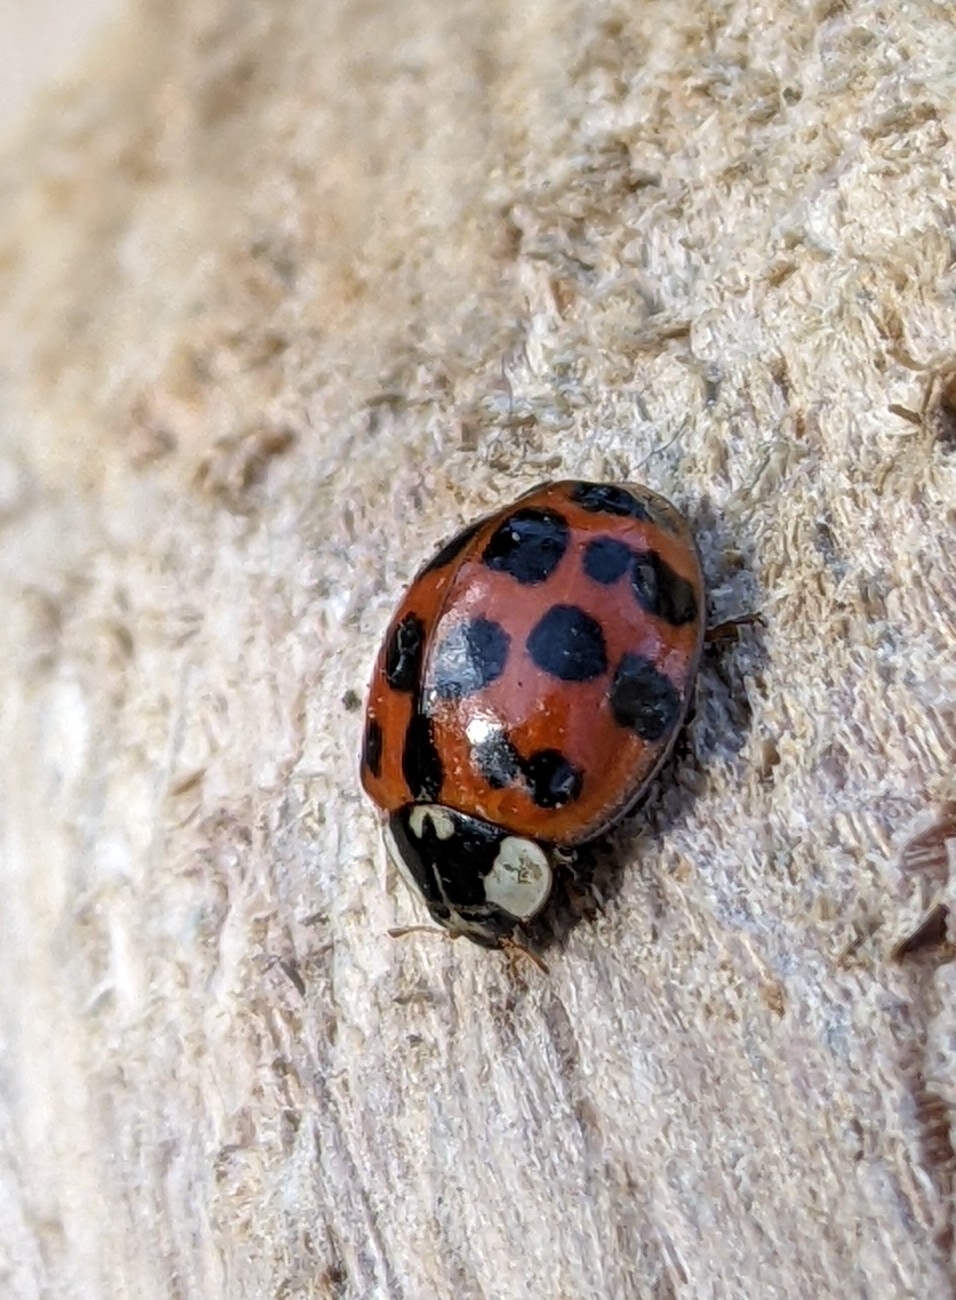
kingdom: Animalia
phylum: Arthropoda
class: Insecta
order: Coleoptera
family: Coccinellidae
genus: Harmonia
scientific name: Harmonia axyridis
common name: Harlequin ladybird
